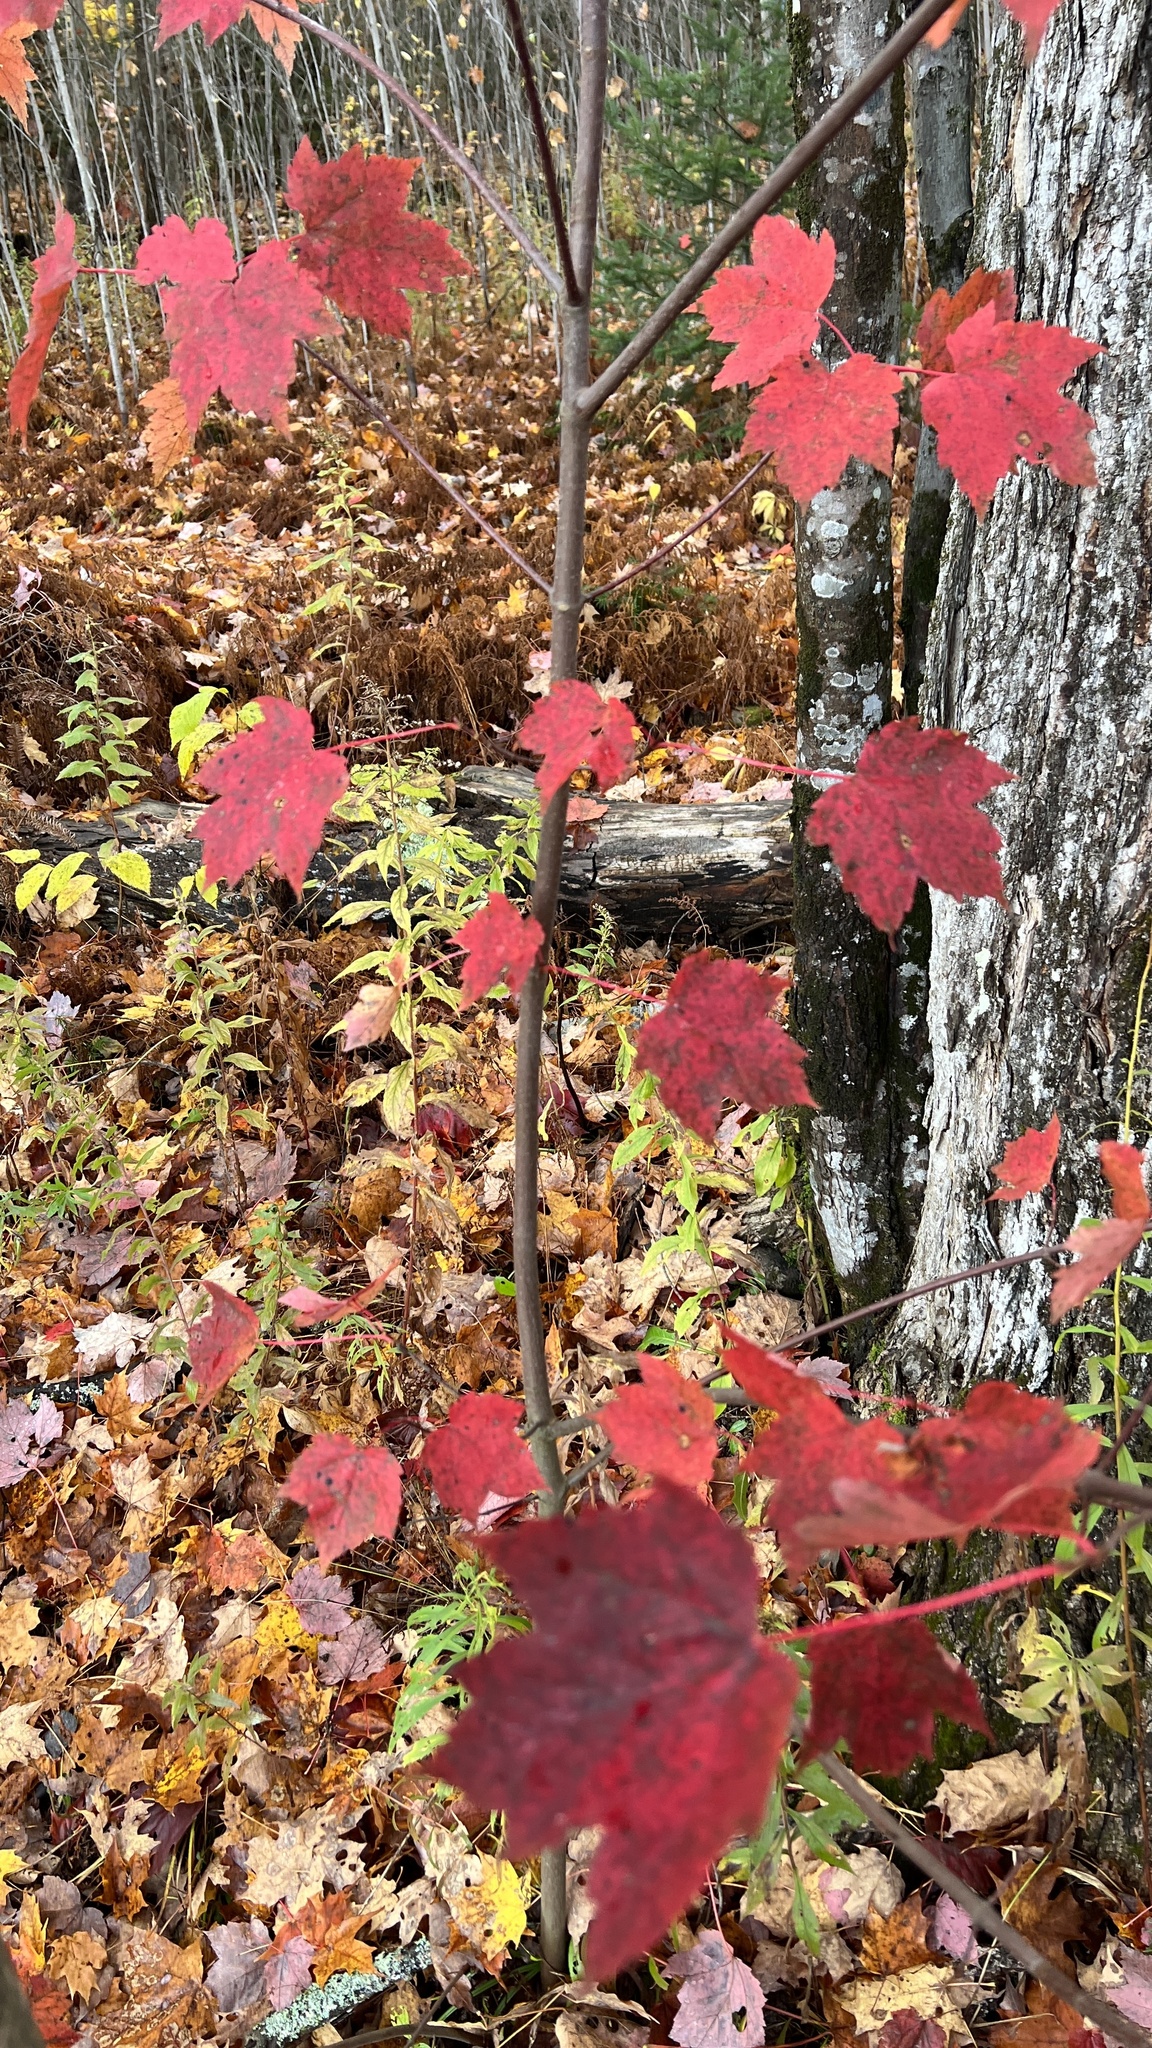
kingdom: Plantae
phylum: Tracheophyta
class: Magnoliopsida
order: Sapindales
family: Sapindaceae
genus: Acer
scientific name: Acer rubrum
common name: Red maple
